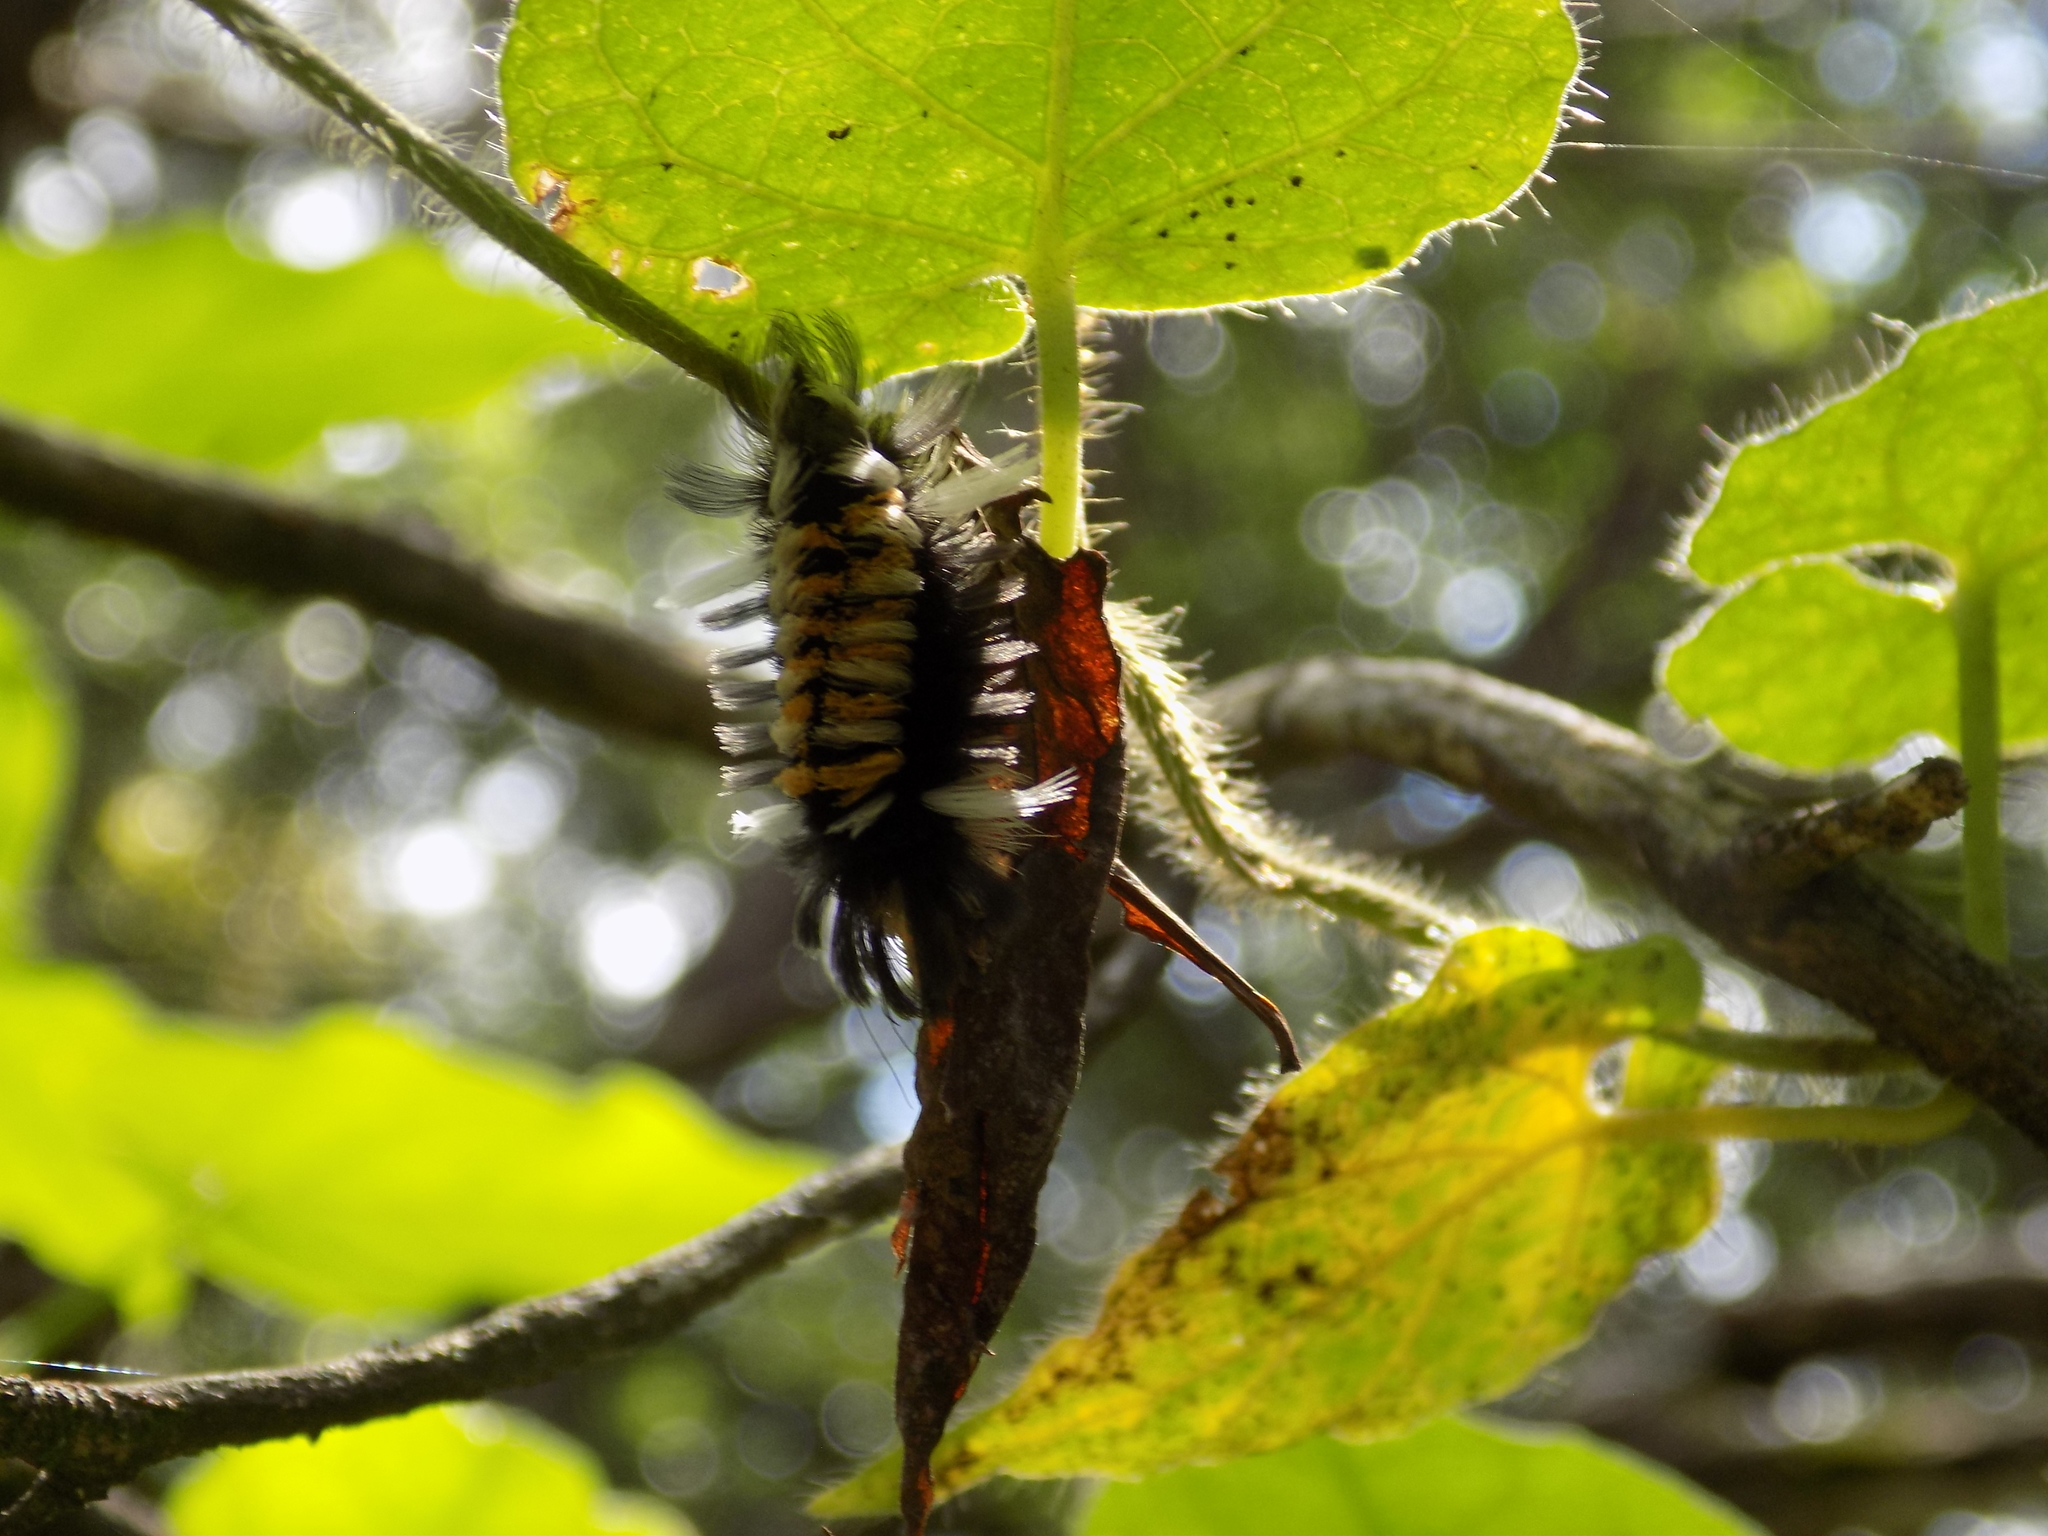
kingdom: Animalia
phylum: Arthropoda
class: Insecta
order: Lepidoptera
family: Erebidae
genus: Euchaetes
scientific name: Euchaetes egle
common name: Milkweed tussock moth
